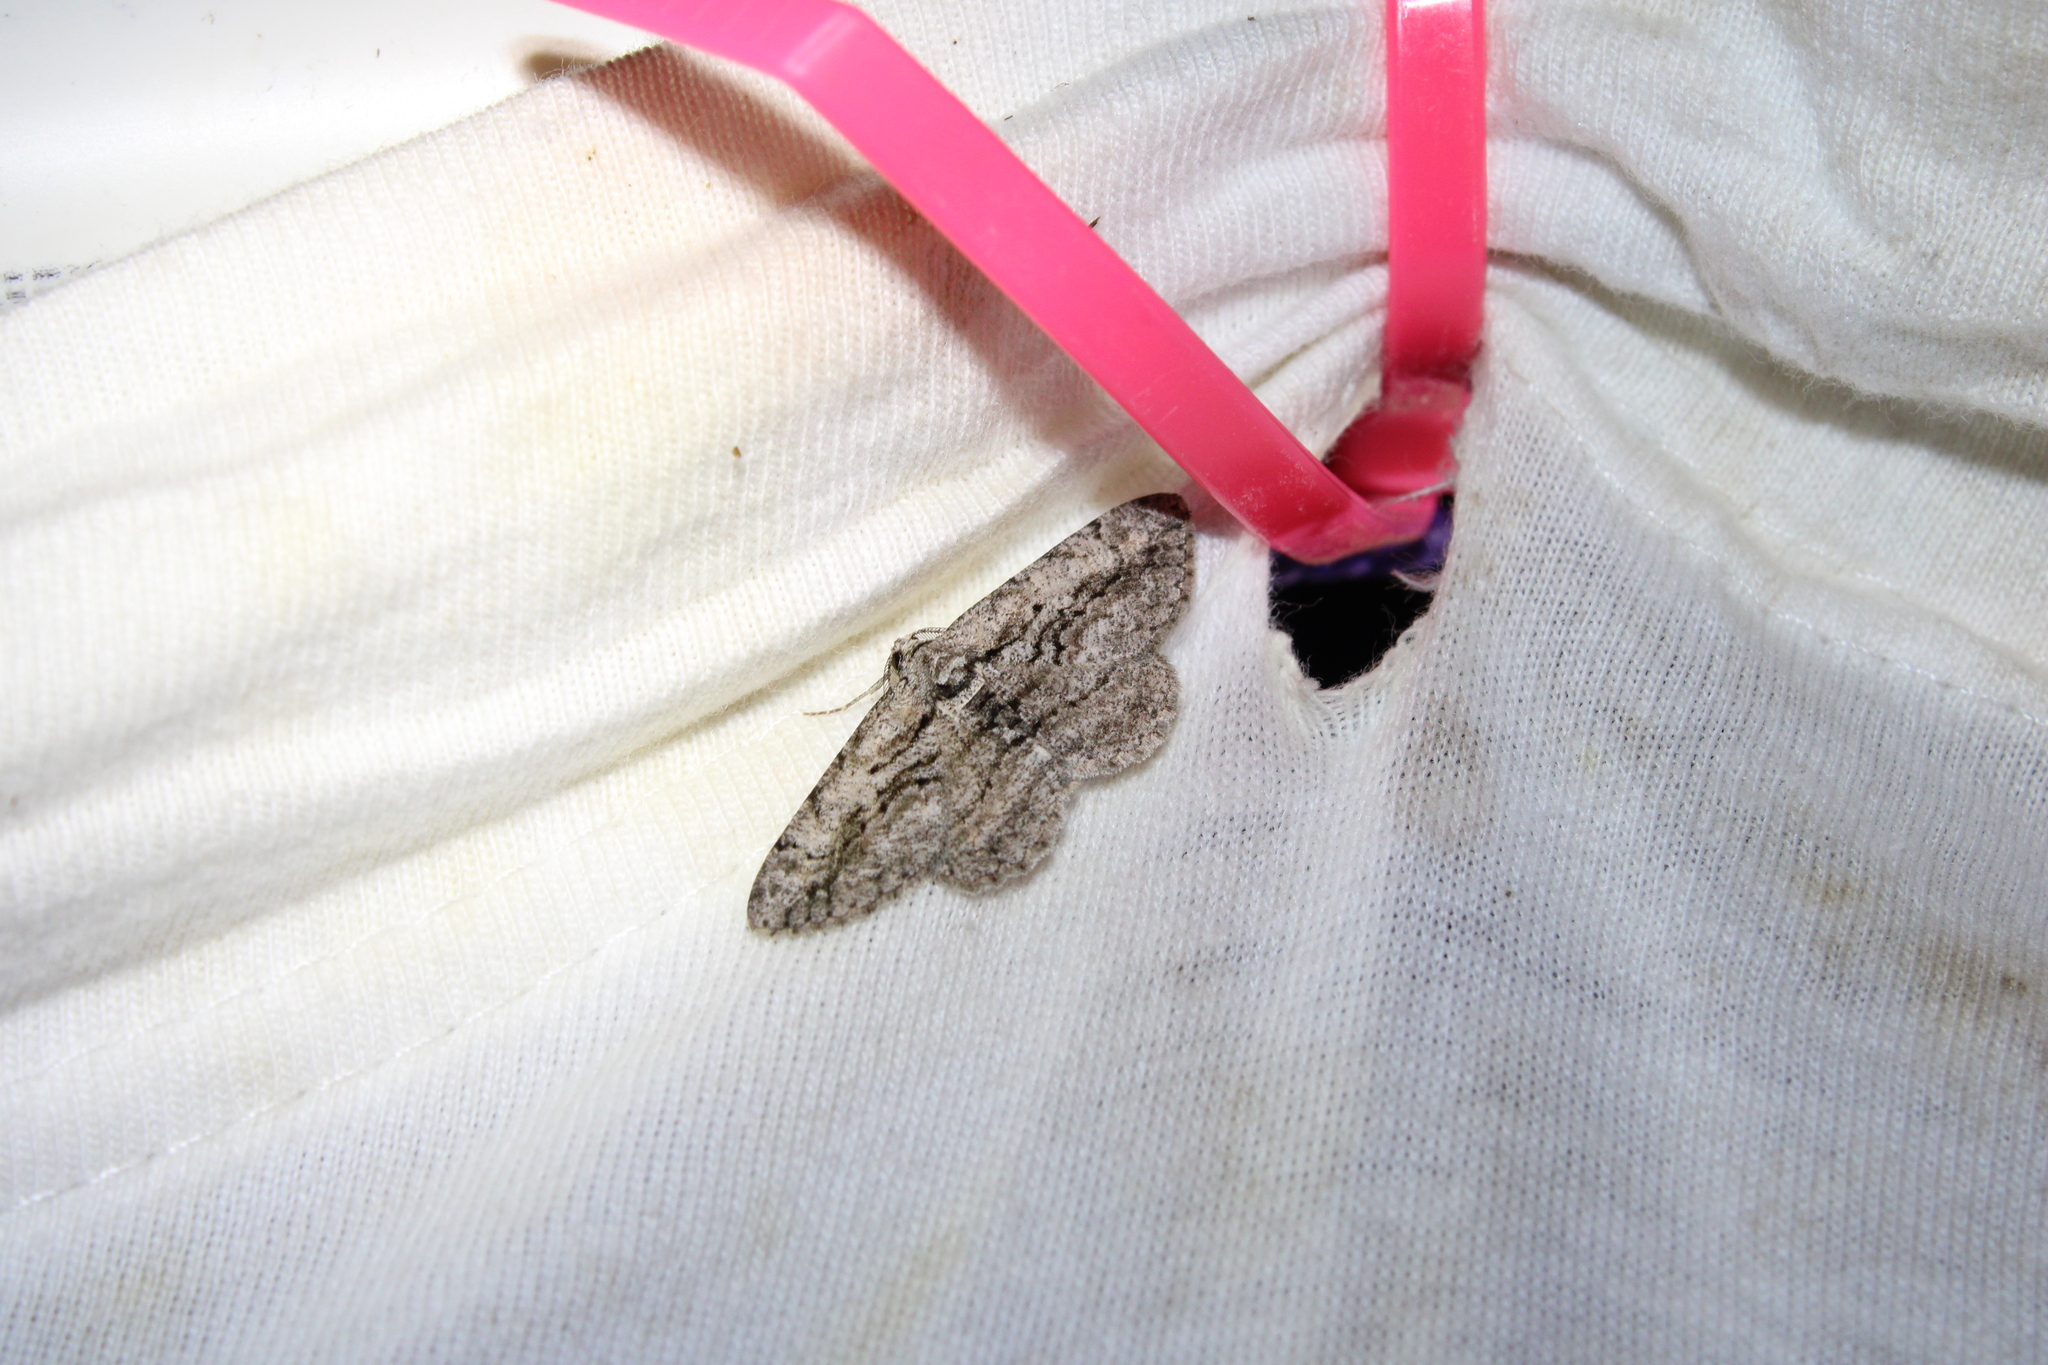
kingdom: Animalia
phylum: Arthropoda
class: Insecta
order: Lepidoptera
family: Geometridae
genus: Anavitrinella
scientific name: Anavitrinella pampinaria
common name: Common gray
